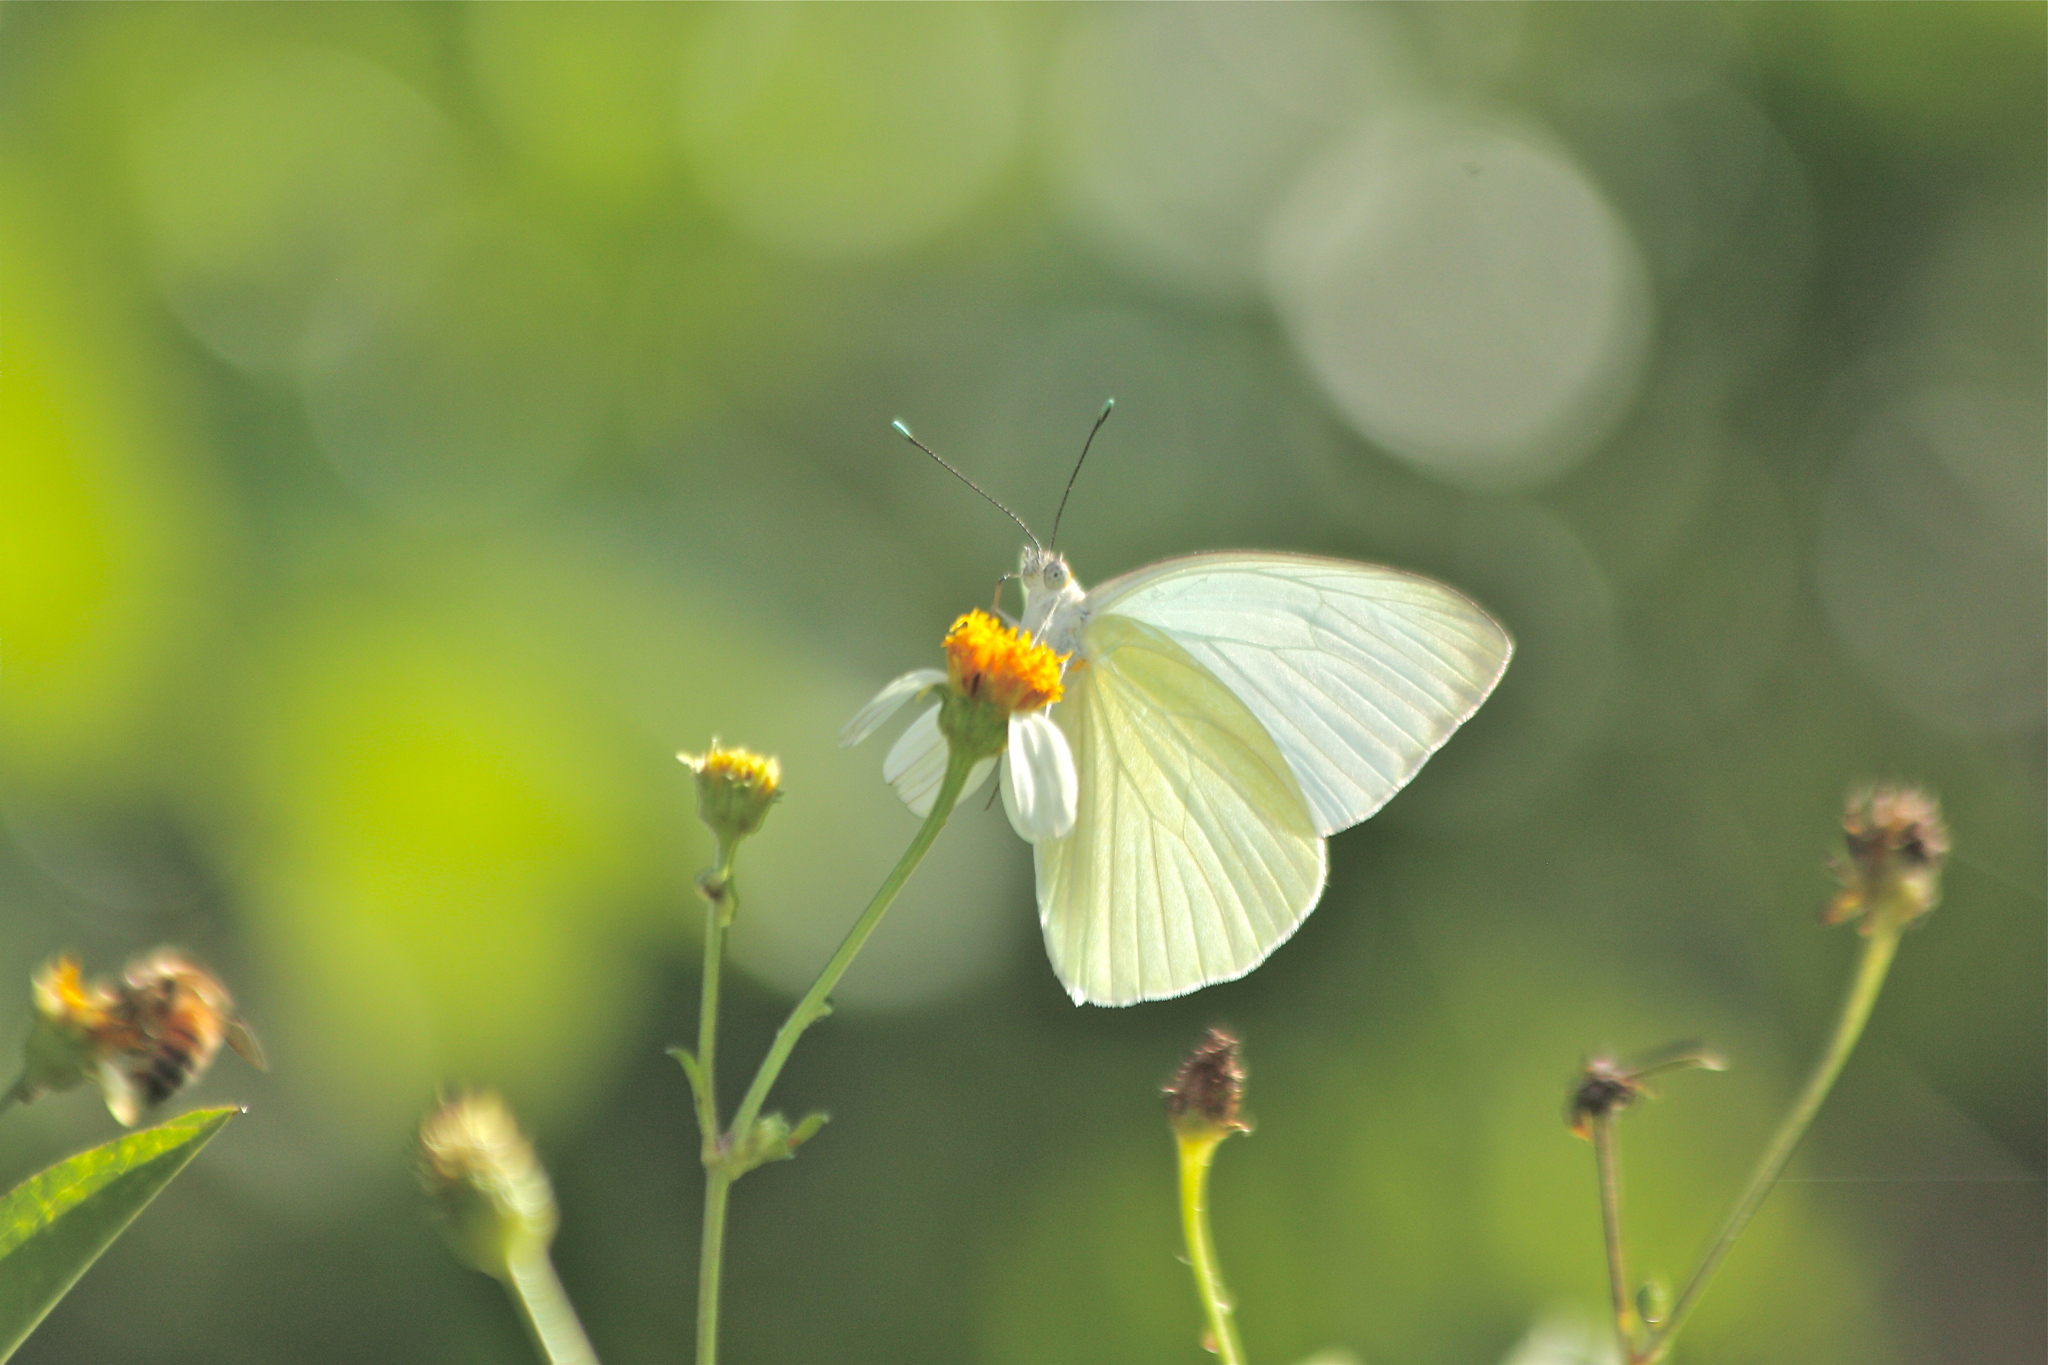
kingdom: Animalia
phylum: Arthropoda
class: Insecta
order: Lepidoptera
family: Pieridae
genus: Ascia
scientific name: Ascia monuste
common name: Great southern white
